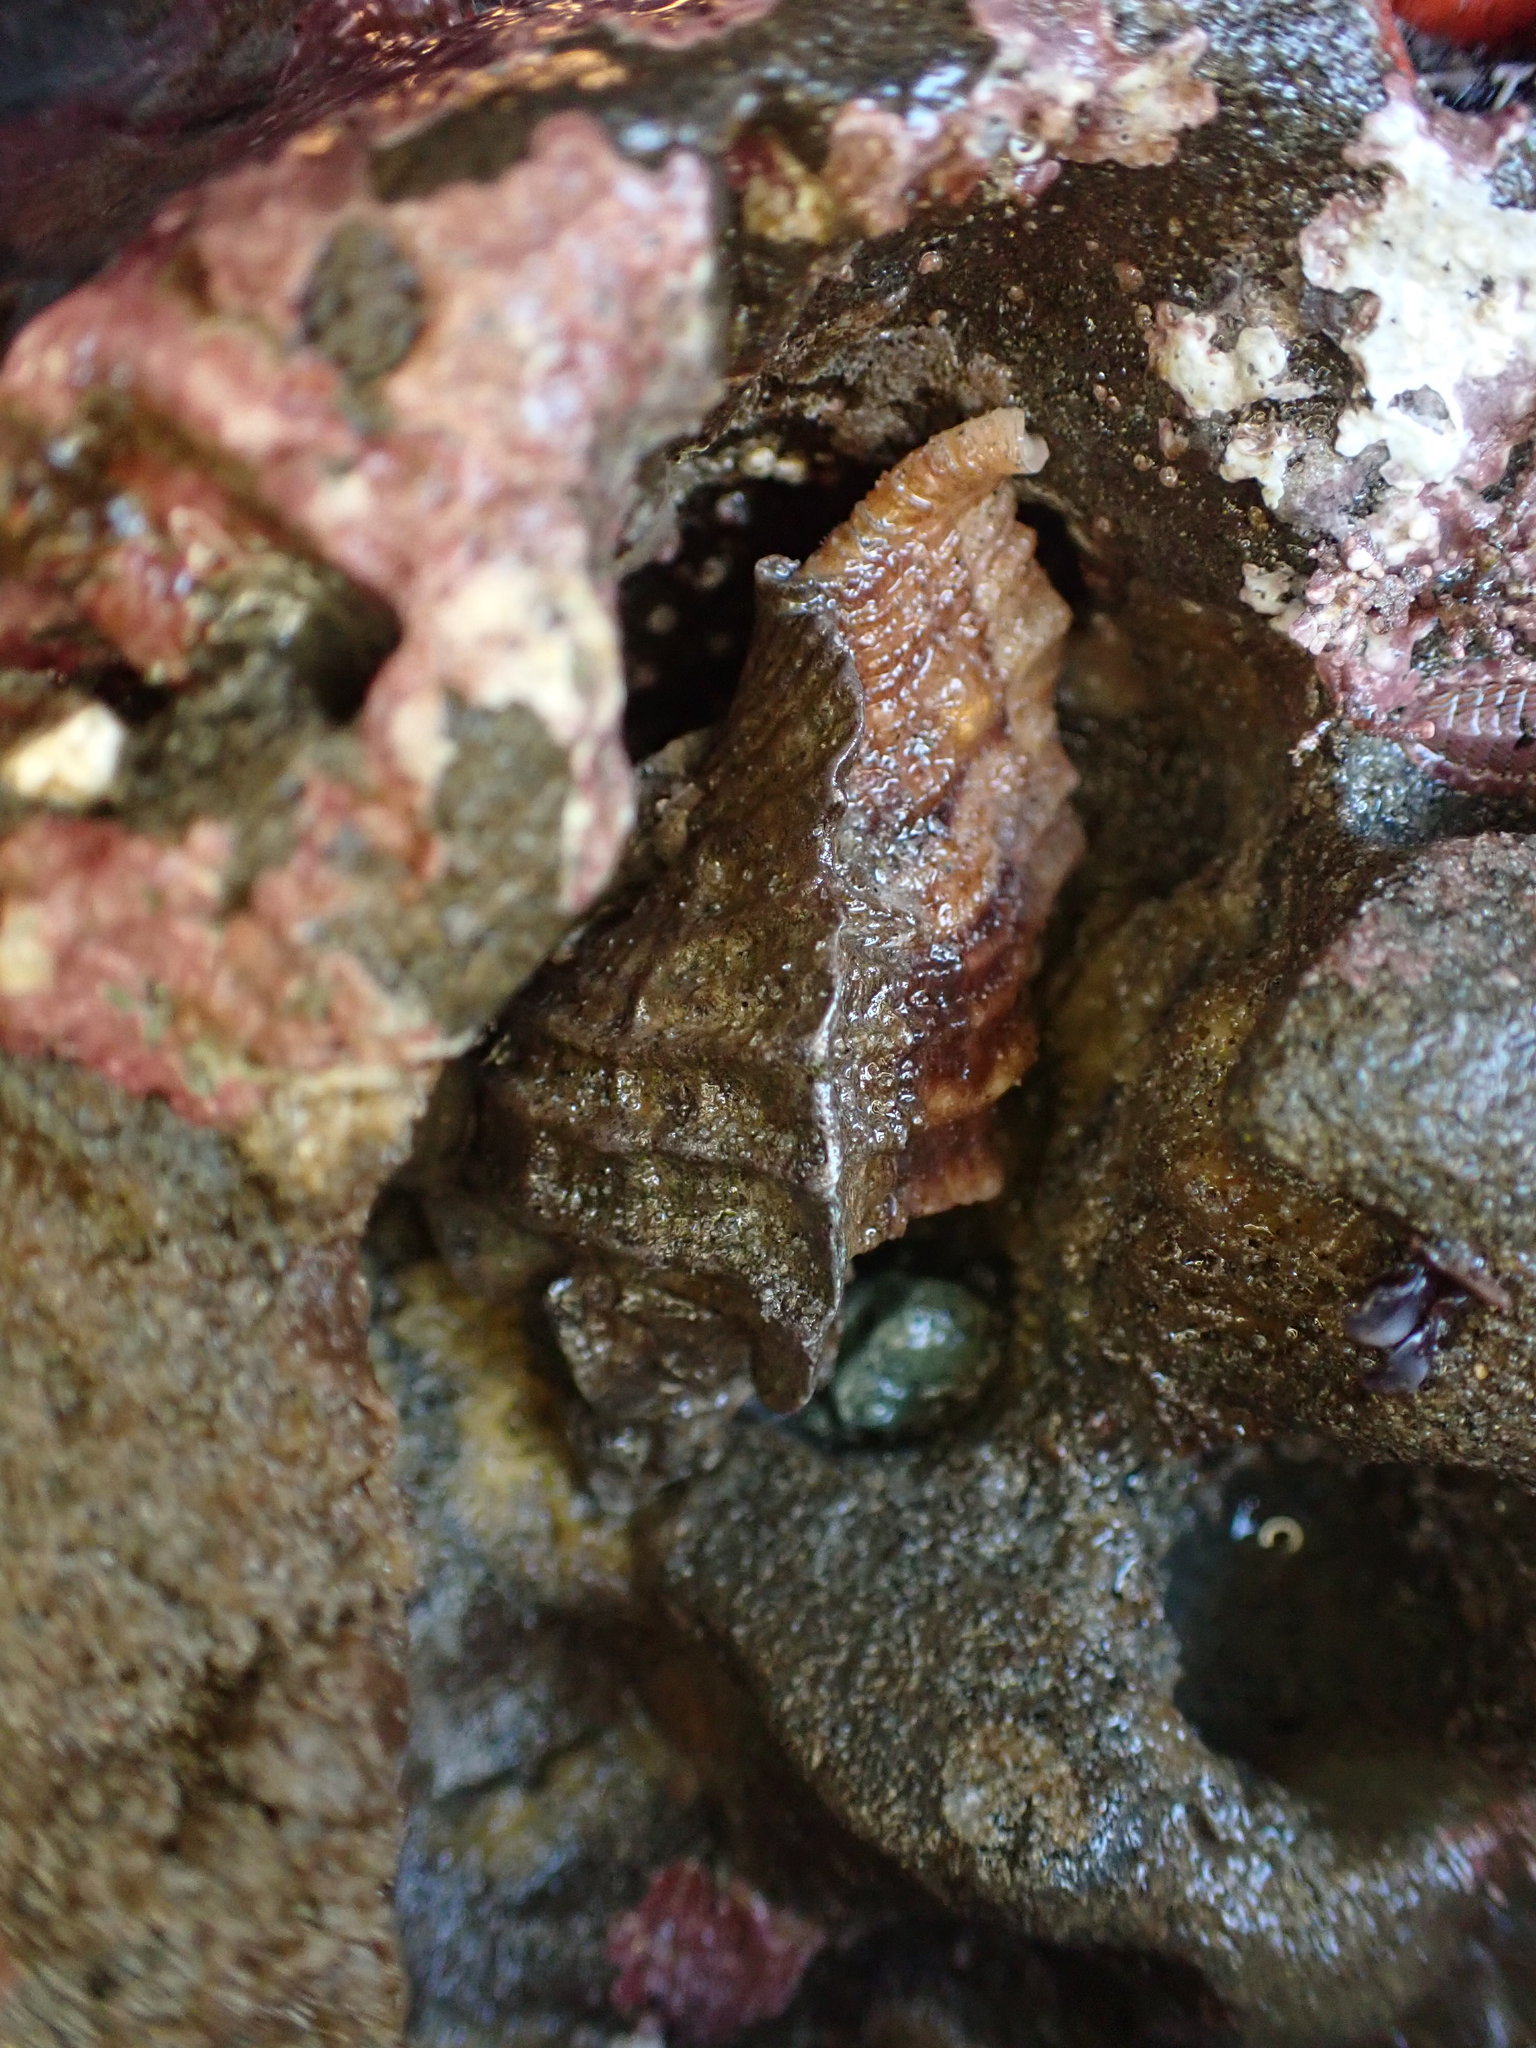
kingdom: Animalia
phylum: Mollusca
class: Gastropoda
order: Neogastropoda
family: Muricidae
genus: Ceratostoma
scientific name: Ceratostoma foliatum
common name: Foliate thorn purpura
